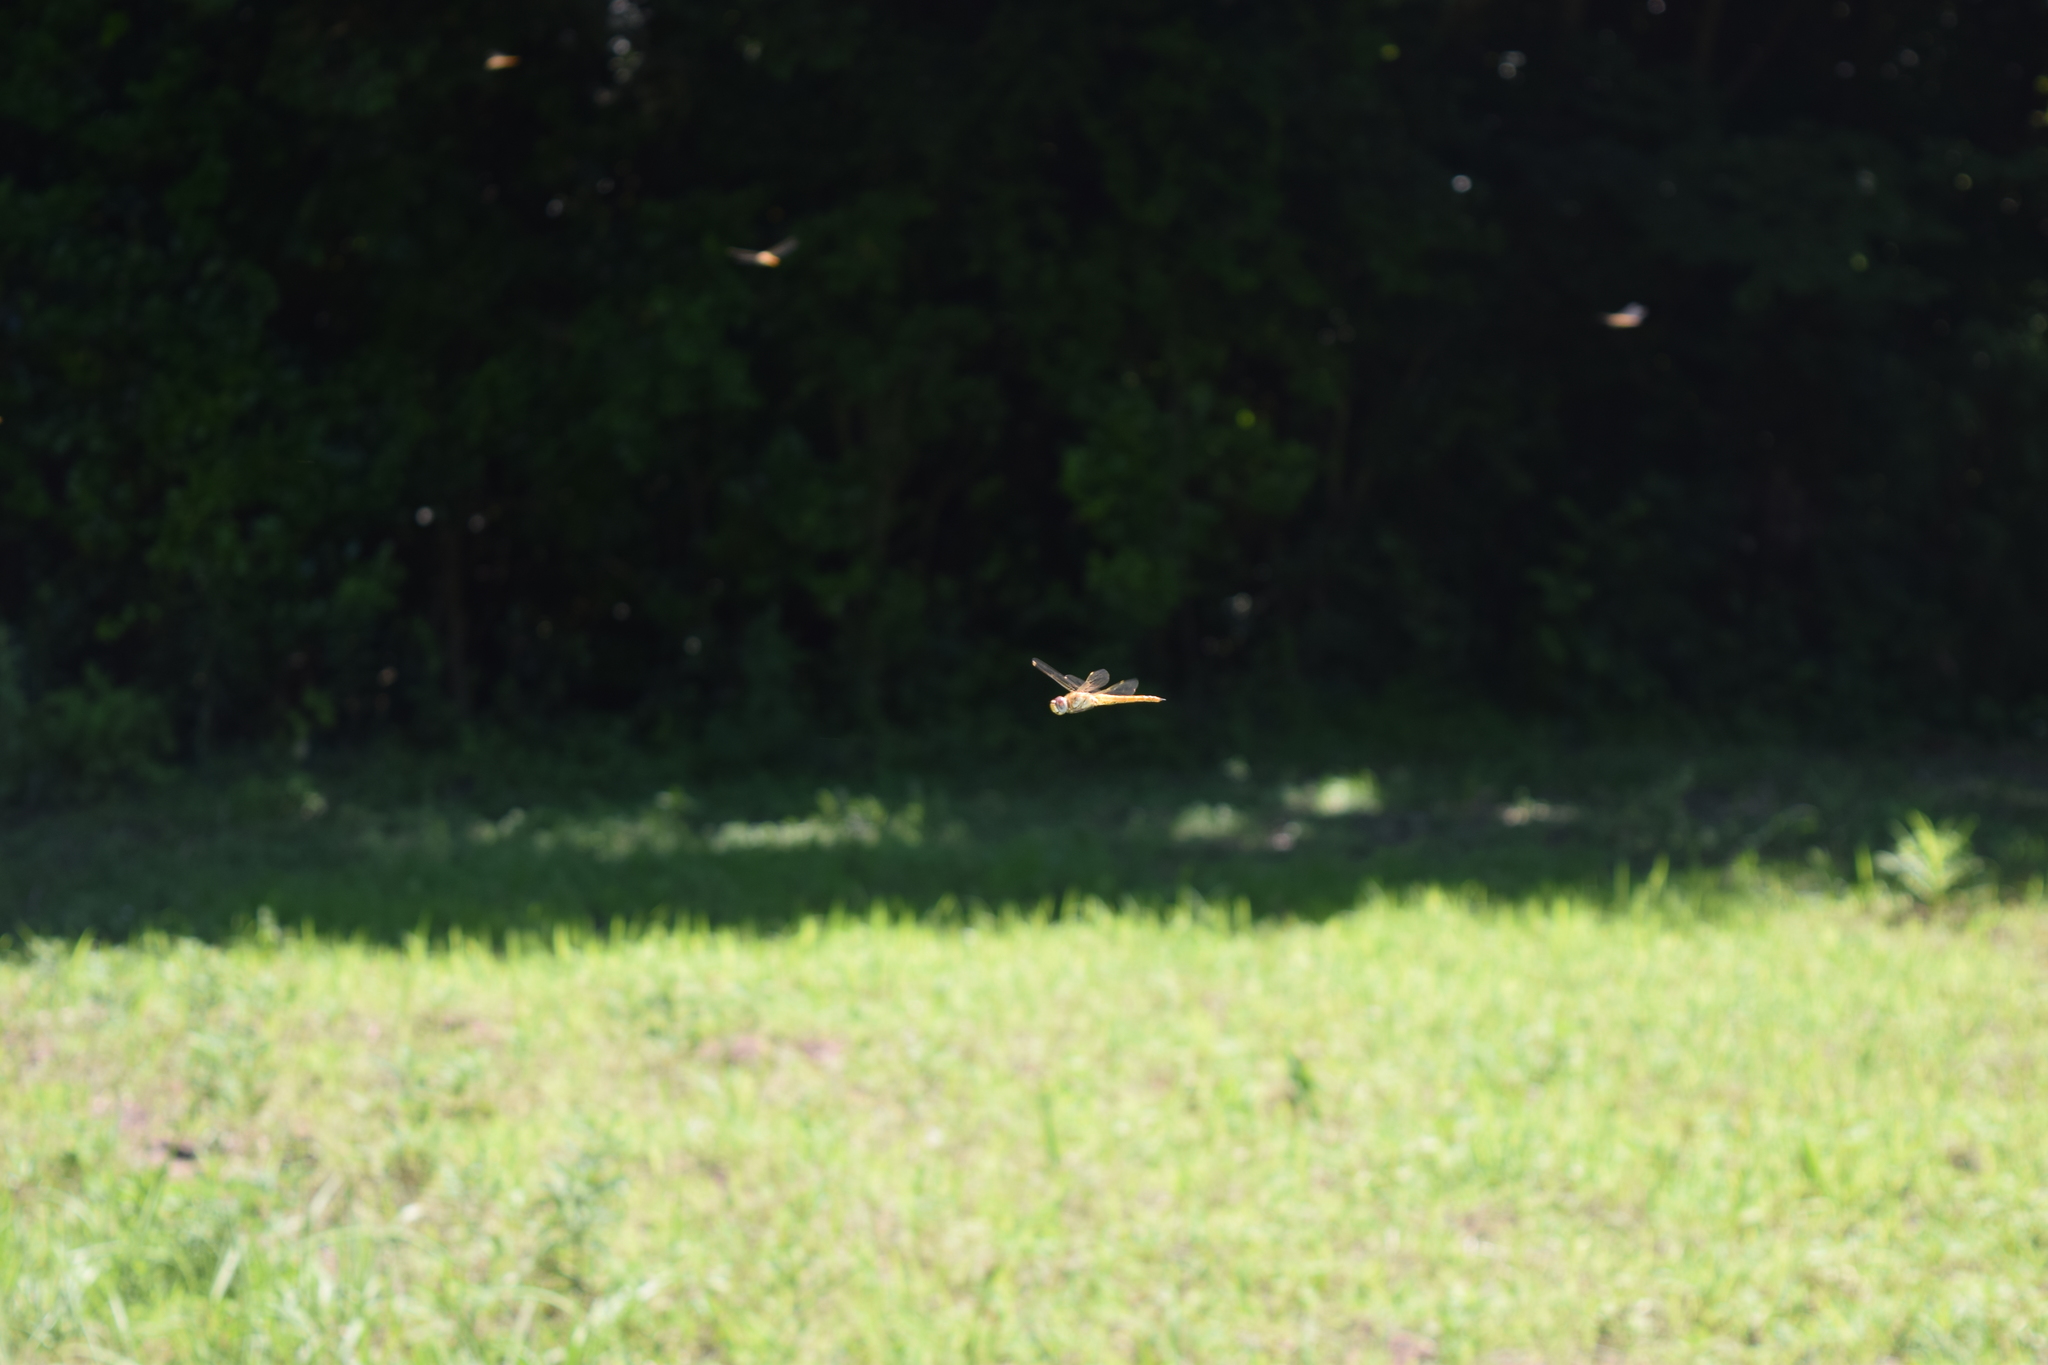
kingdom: Animalia
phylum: Arthropoda
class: Insecta
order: Odonata
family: Libellulidae
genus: Pantala
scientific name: Pantala flavescens
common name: Wandering glider
